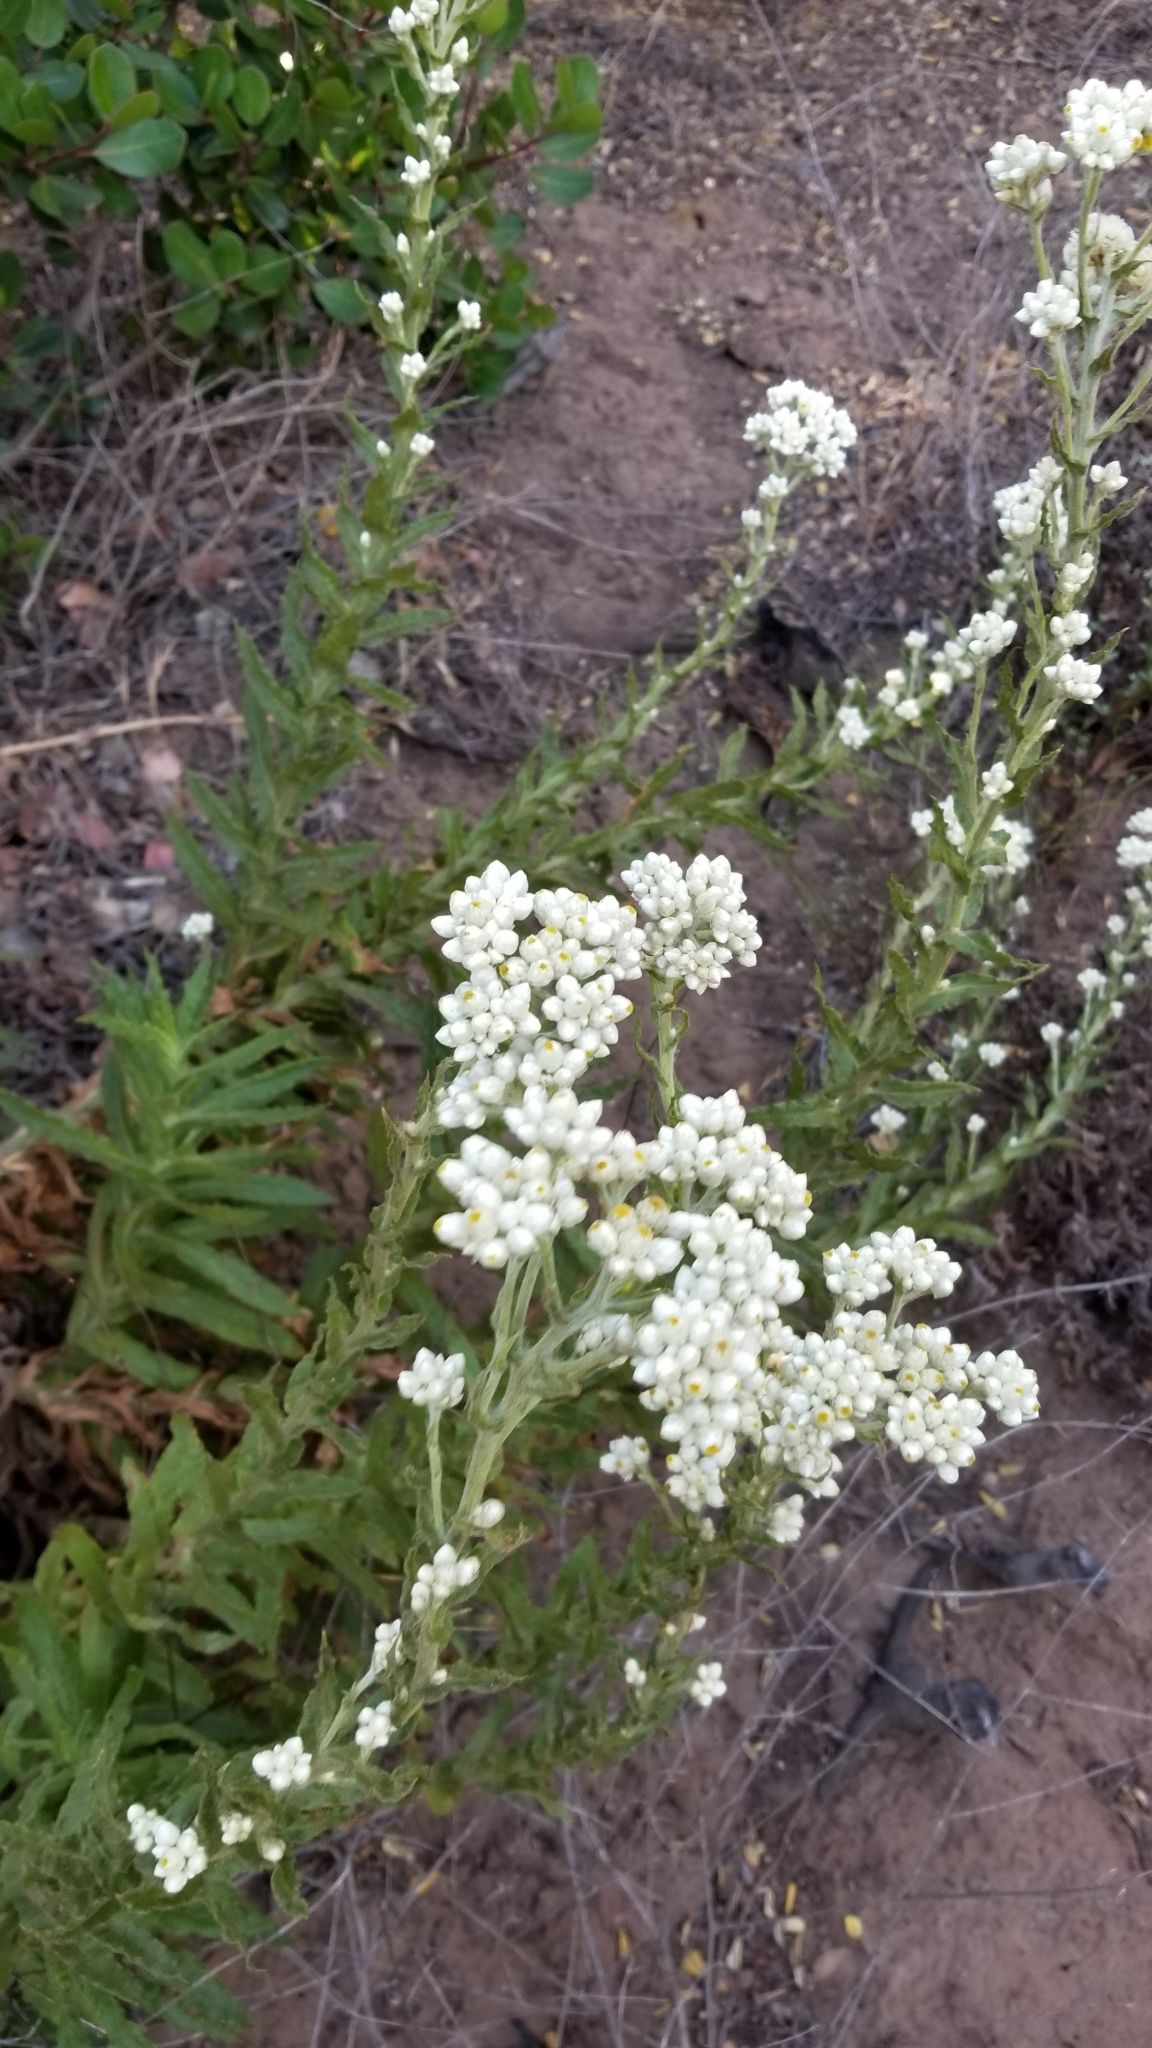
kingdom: Plantae
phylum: Tracheophyta
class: Magnoliopsida
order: Asterales
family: Asteraceae
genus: Pseudognaphalium
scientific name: Pseudognaphalium californicum
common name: California rabbit-tobacco
